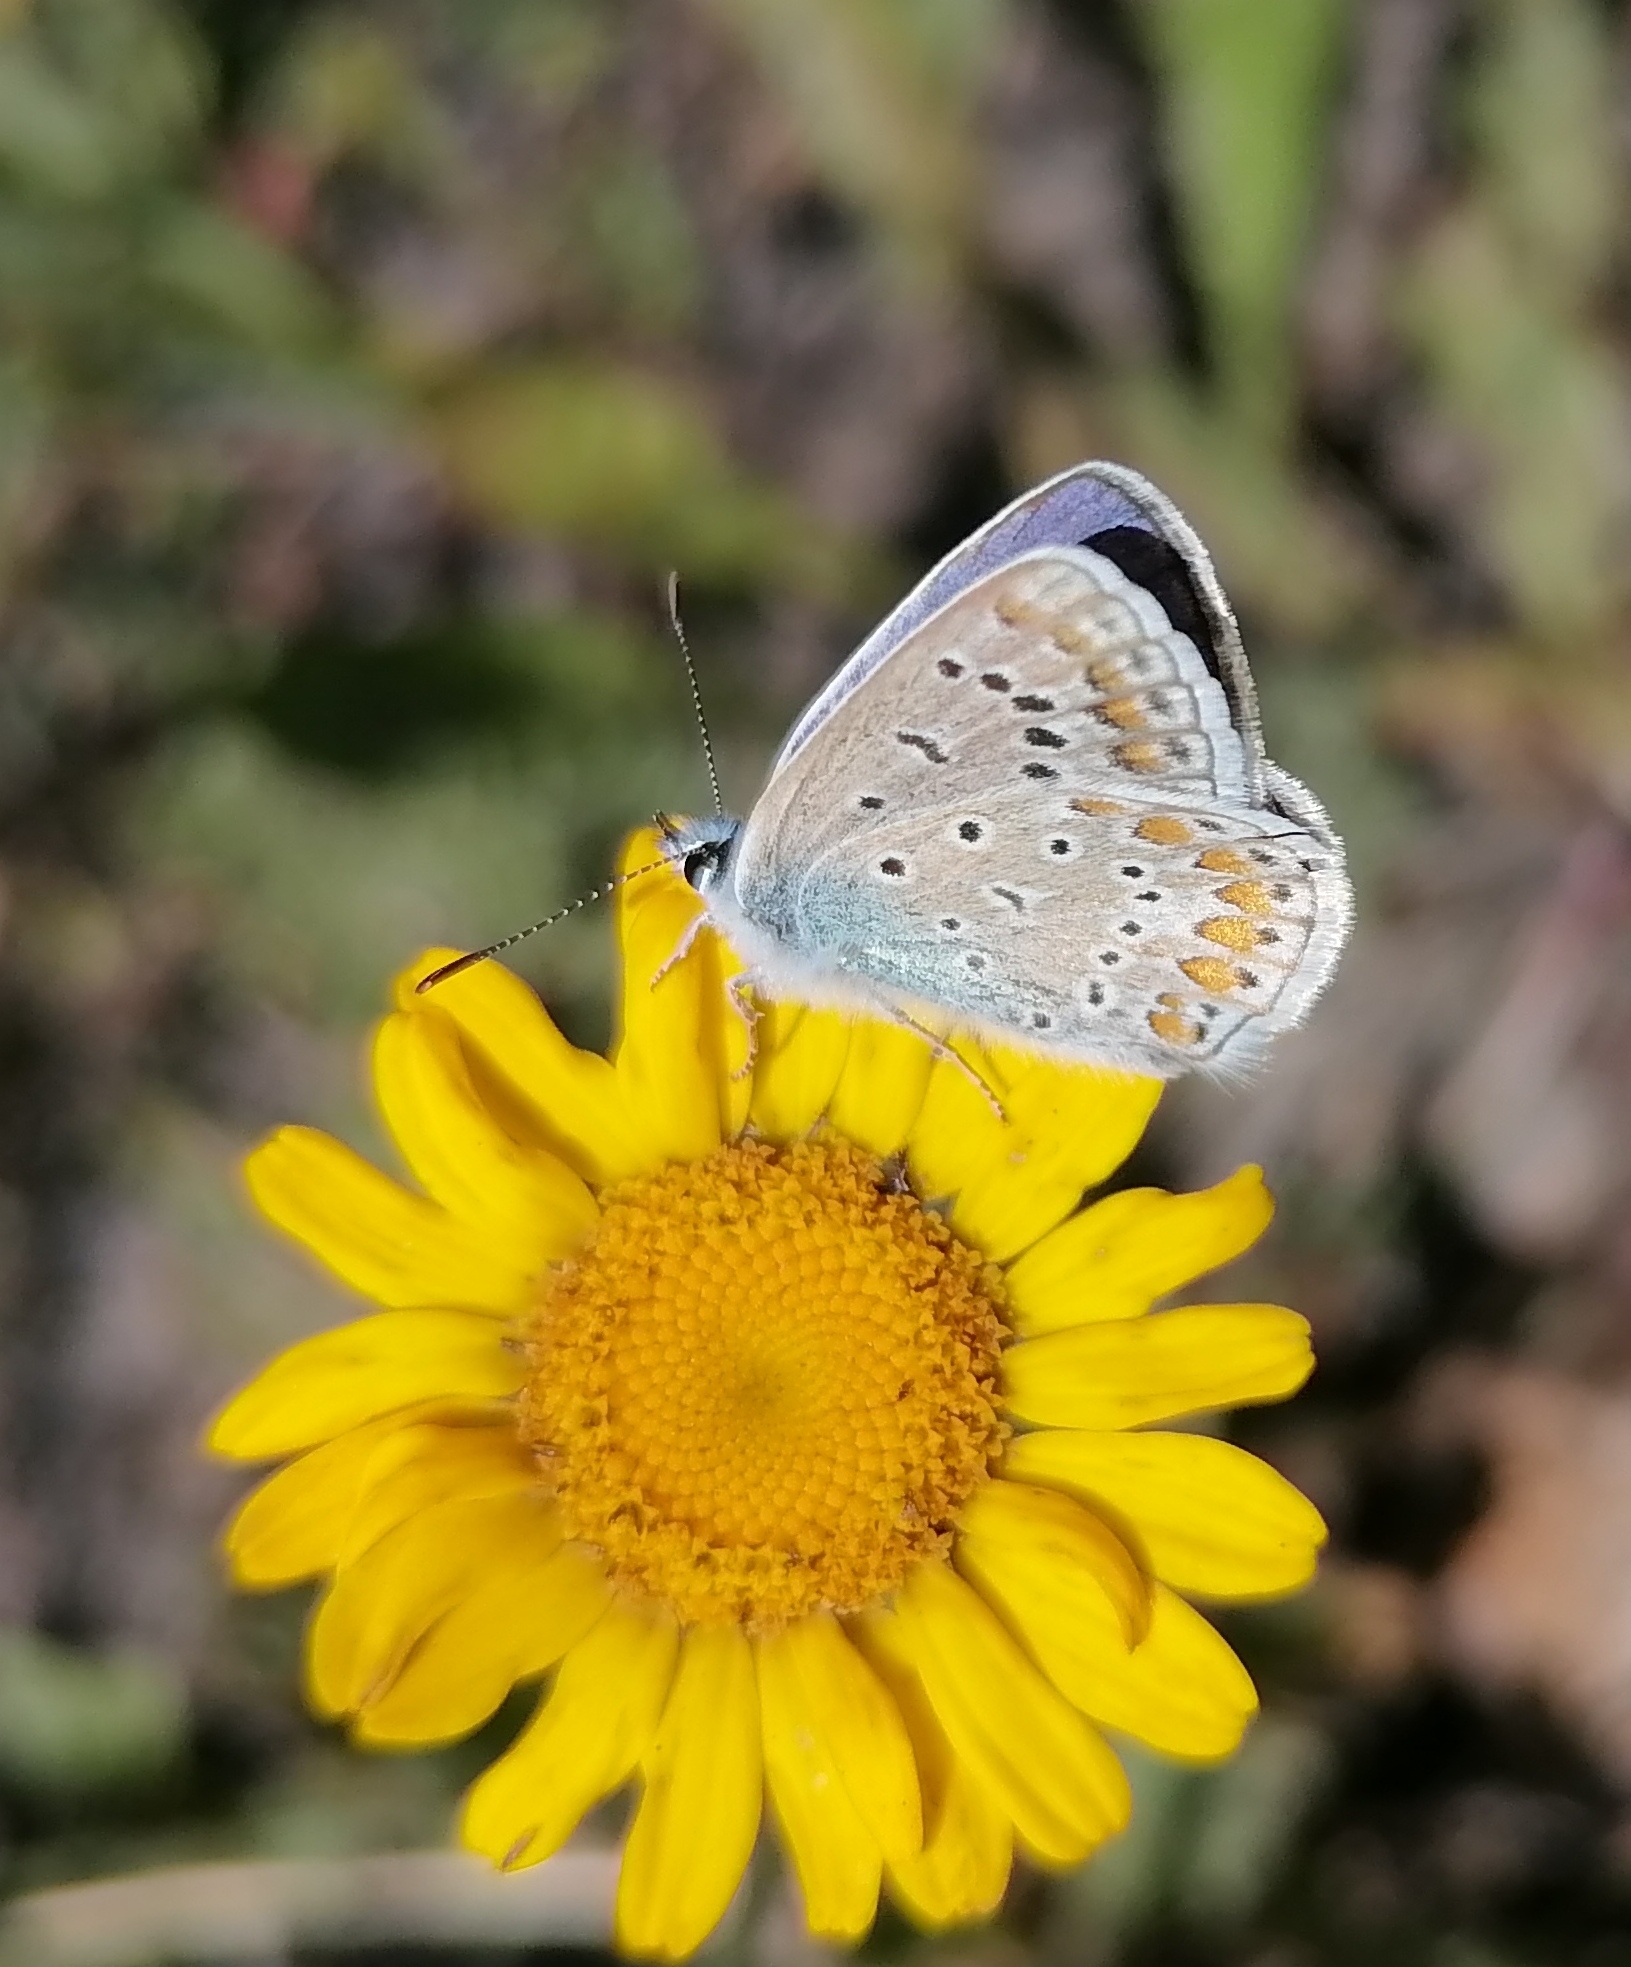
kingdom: Animalia
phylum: Arthropoda
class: Insecta
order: Lepidoptera
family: Lycaenidae
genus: Polyommatus
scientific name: Polyommatus icarus
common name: Common blue
